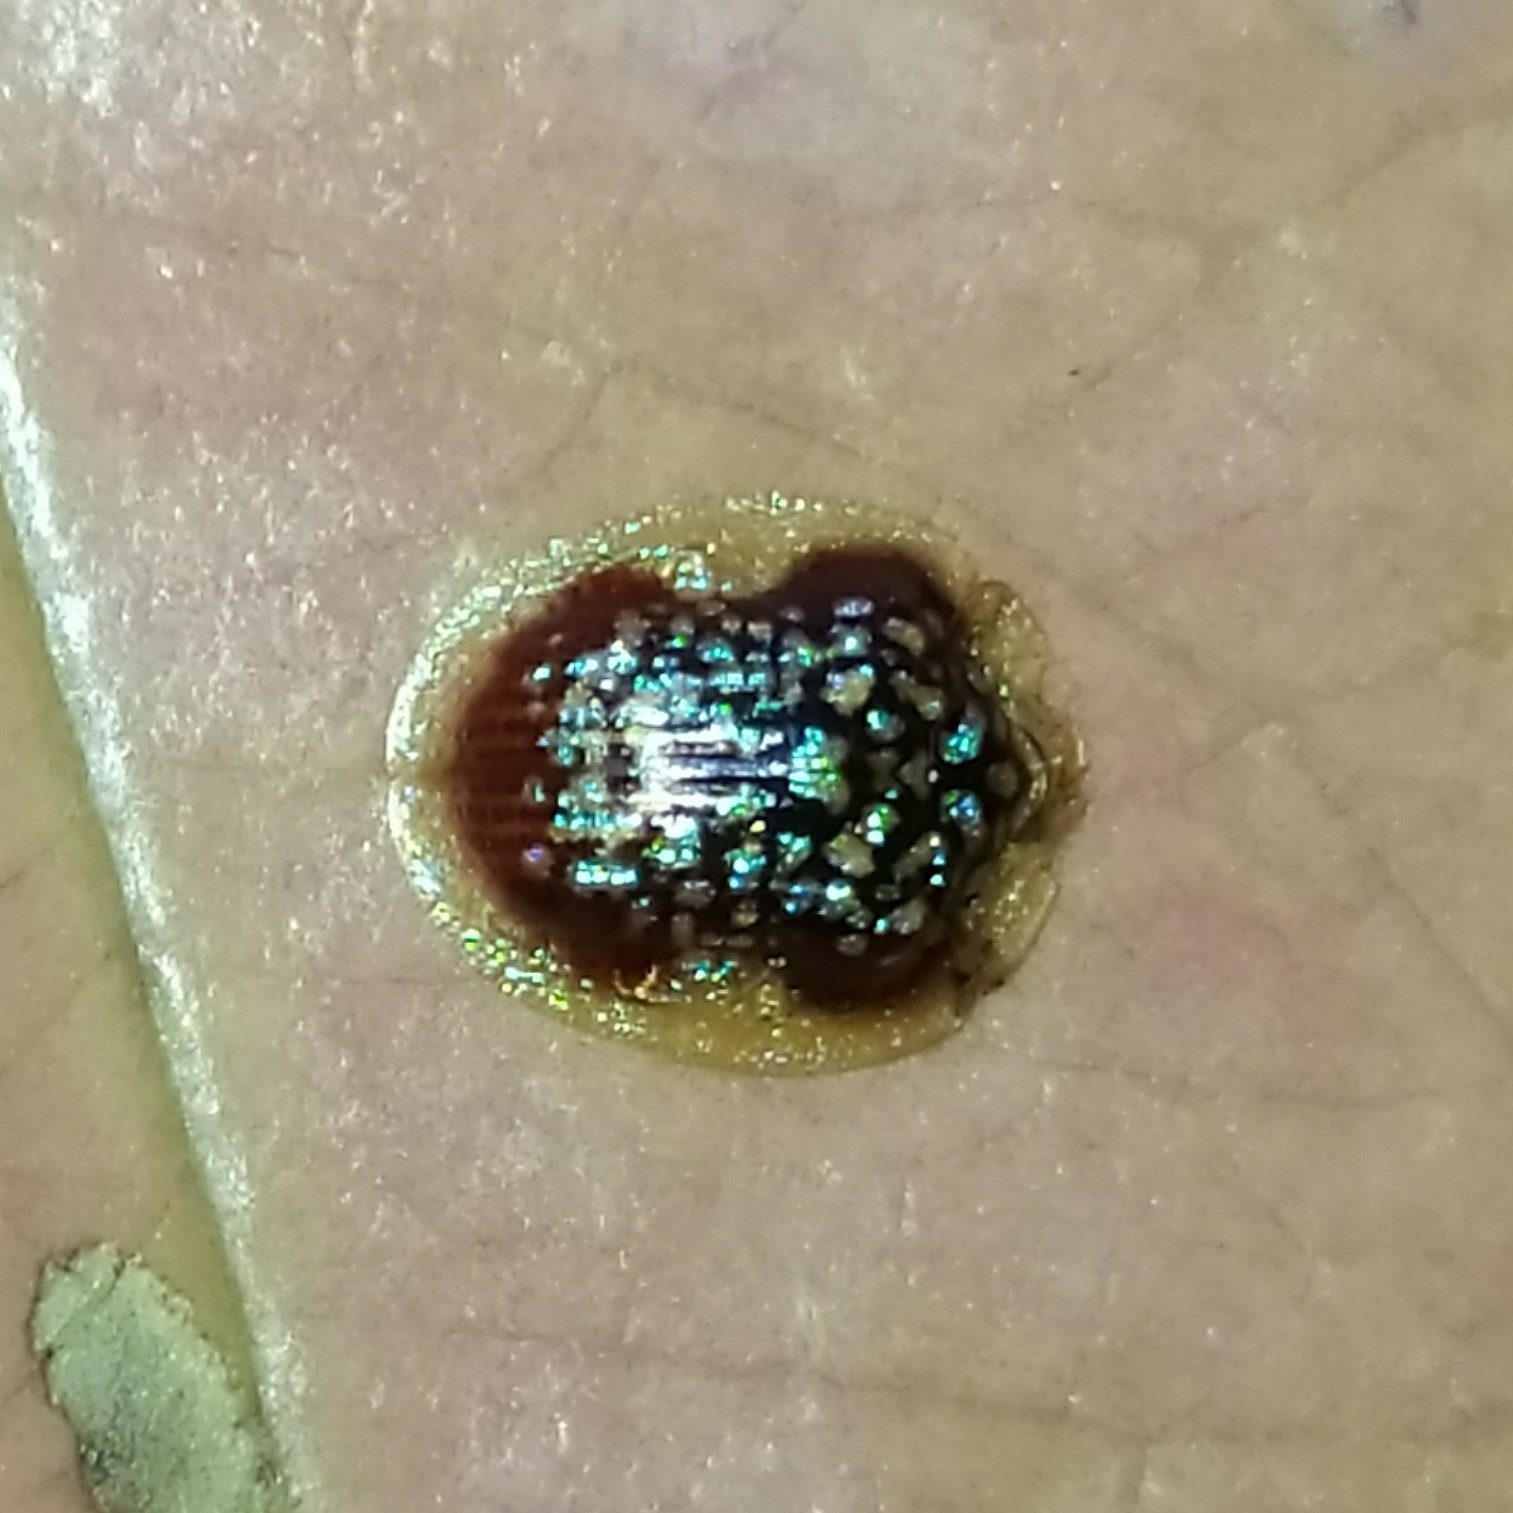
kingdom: Animalia
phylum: Arthropoda
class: Insecta
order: Coleoptera
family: Chrysomelidae
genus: Microctenochira
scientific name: Microctenochira conscripta
